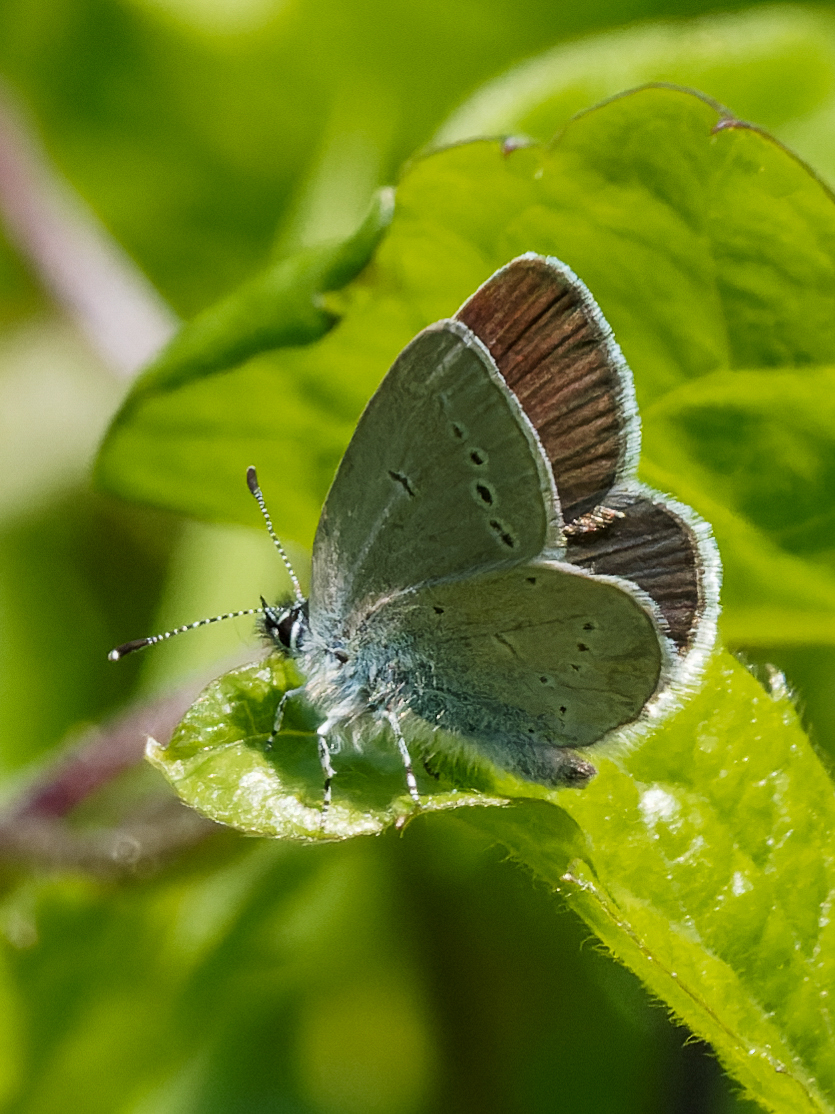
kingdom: Animalia
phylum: Arthropoda
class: Insecta
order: Lepidoptera
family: Lycaenidae
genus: Cupido
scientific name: Cupido minimus
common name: Small blue
